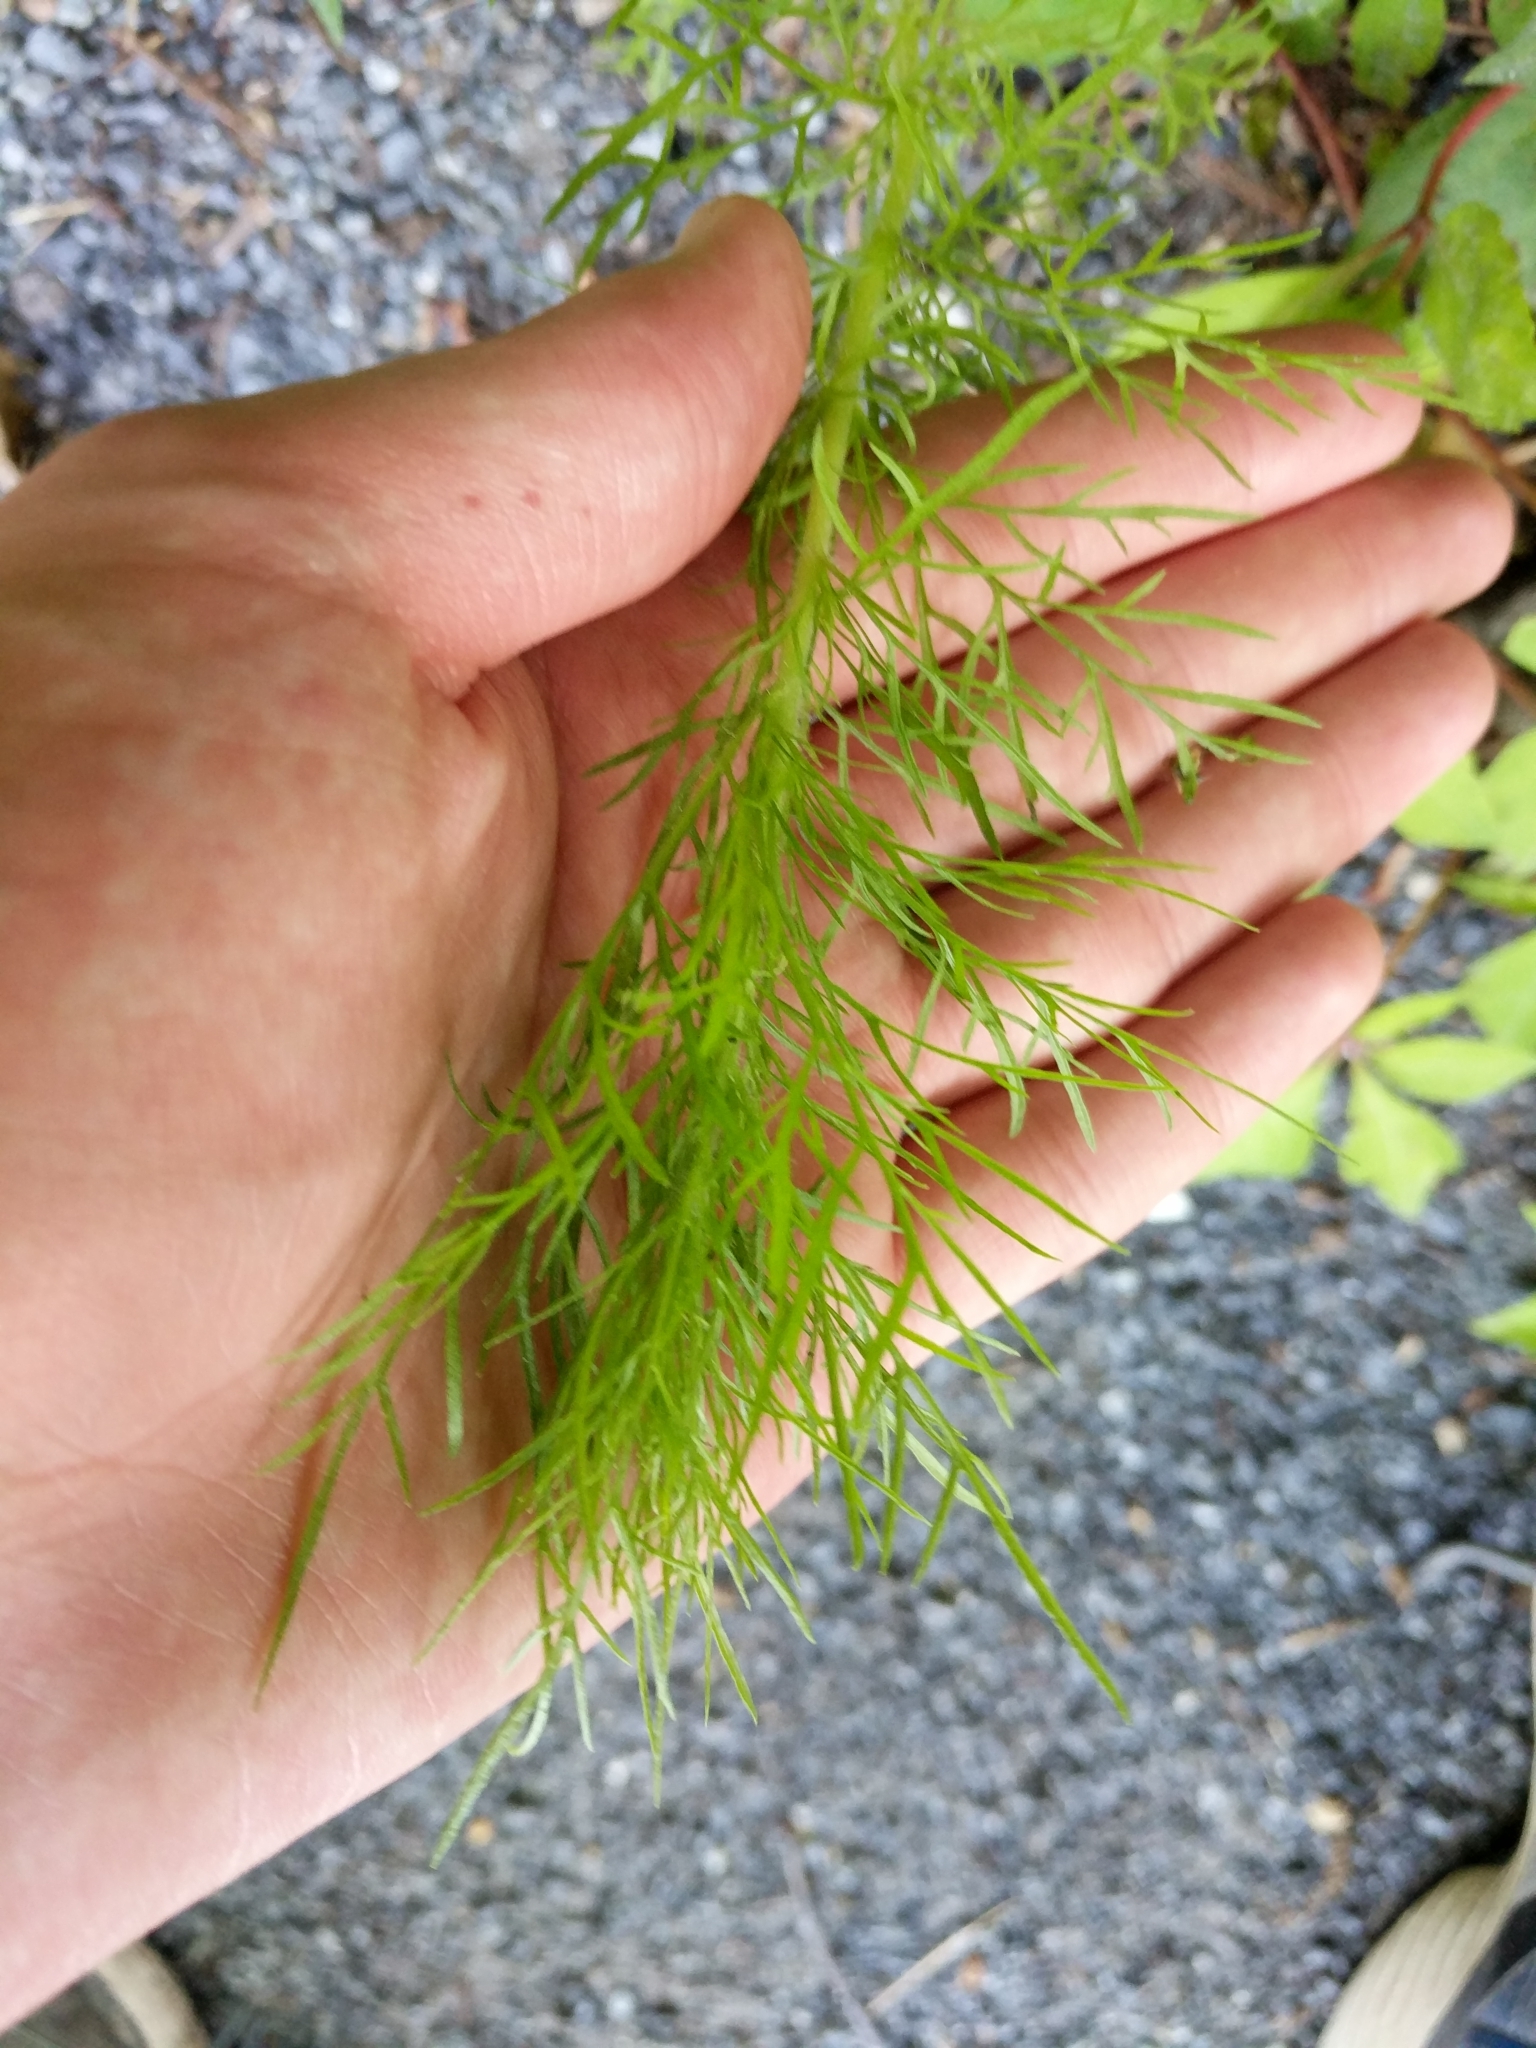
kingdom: Plantae
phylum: Tracheophyta
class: Magnoliopsida
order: Asterales
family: Asteraceae
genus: Eupatorium
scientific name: Eupatorium capillifolium
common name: Dog-fennel
